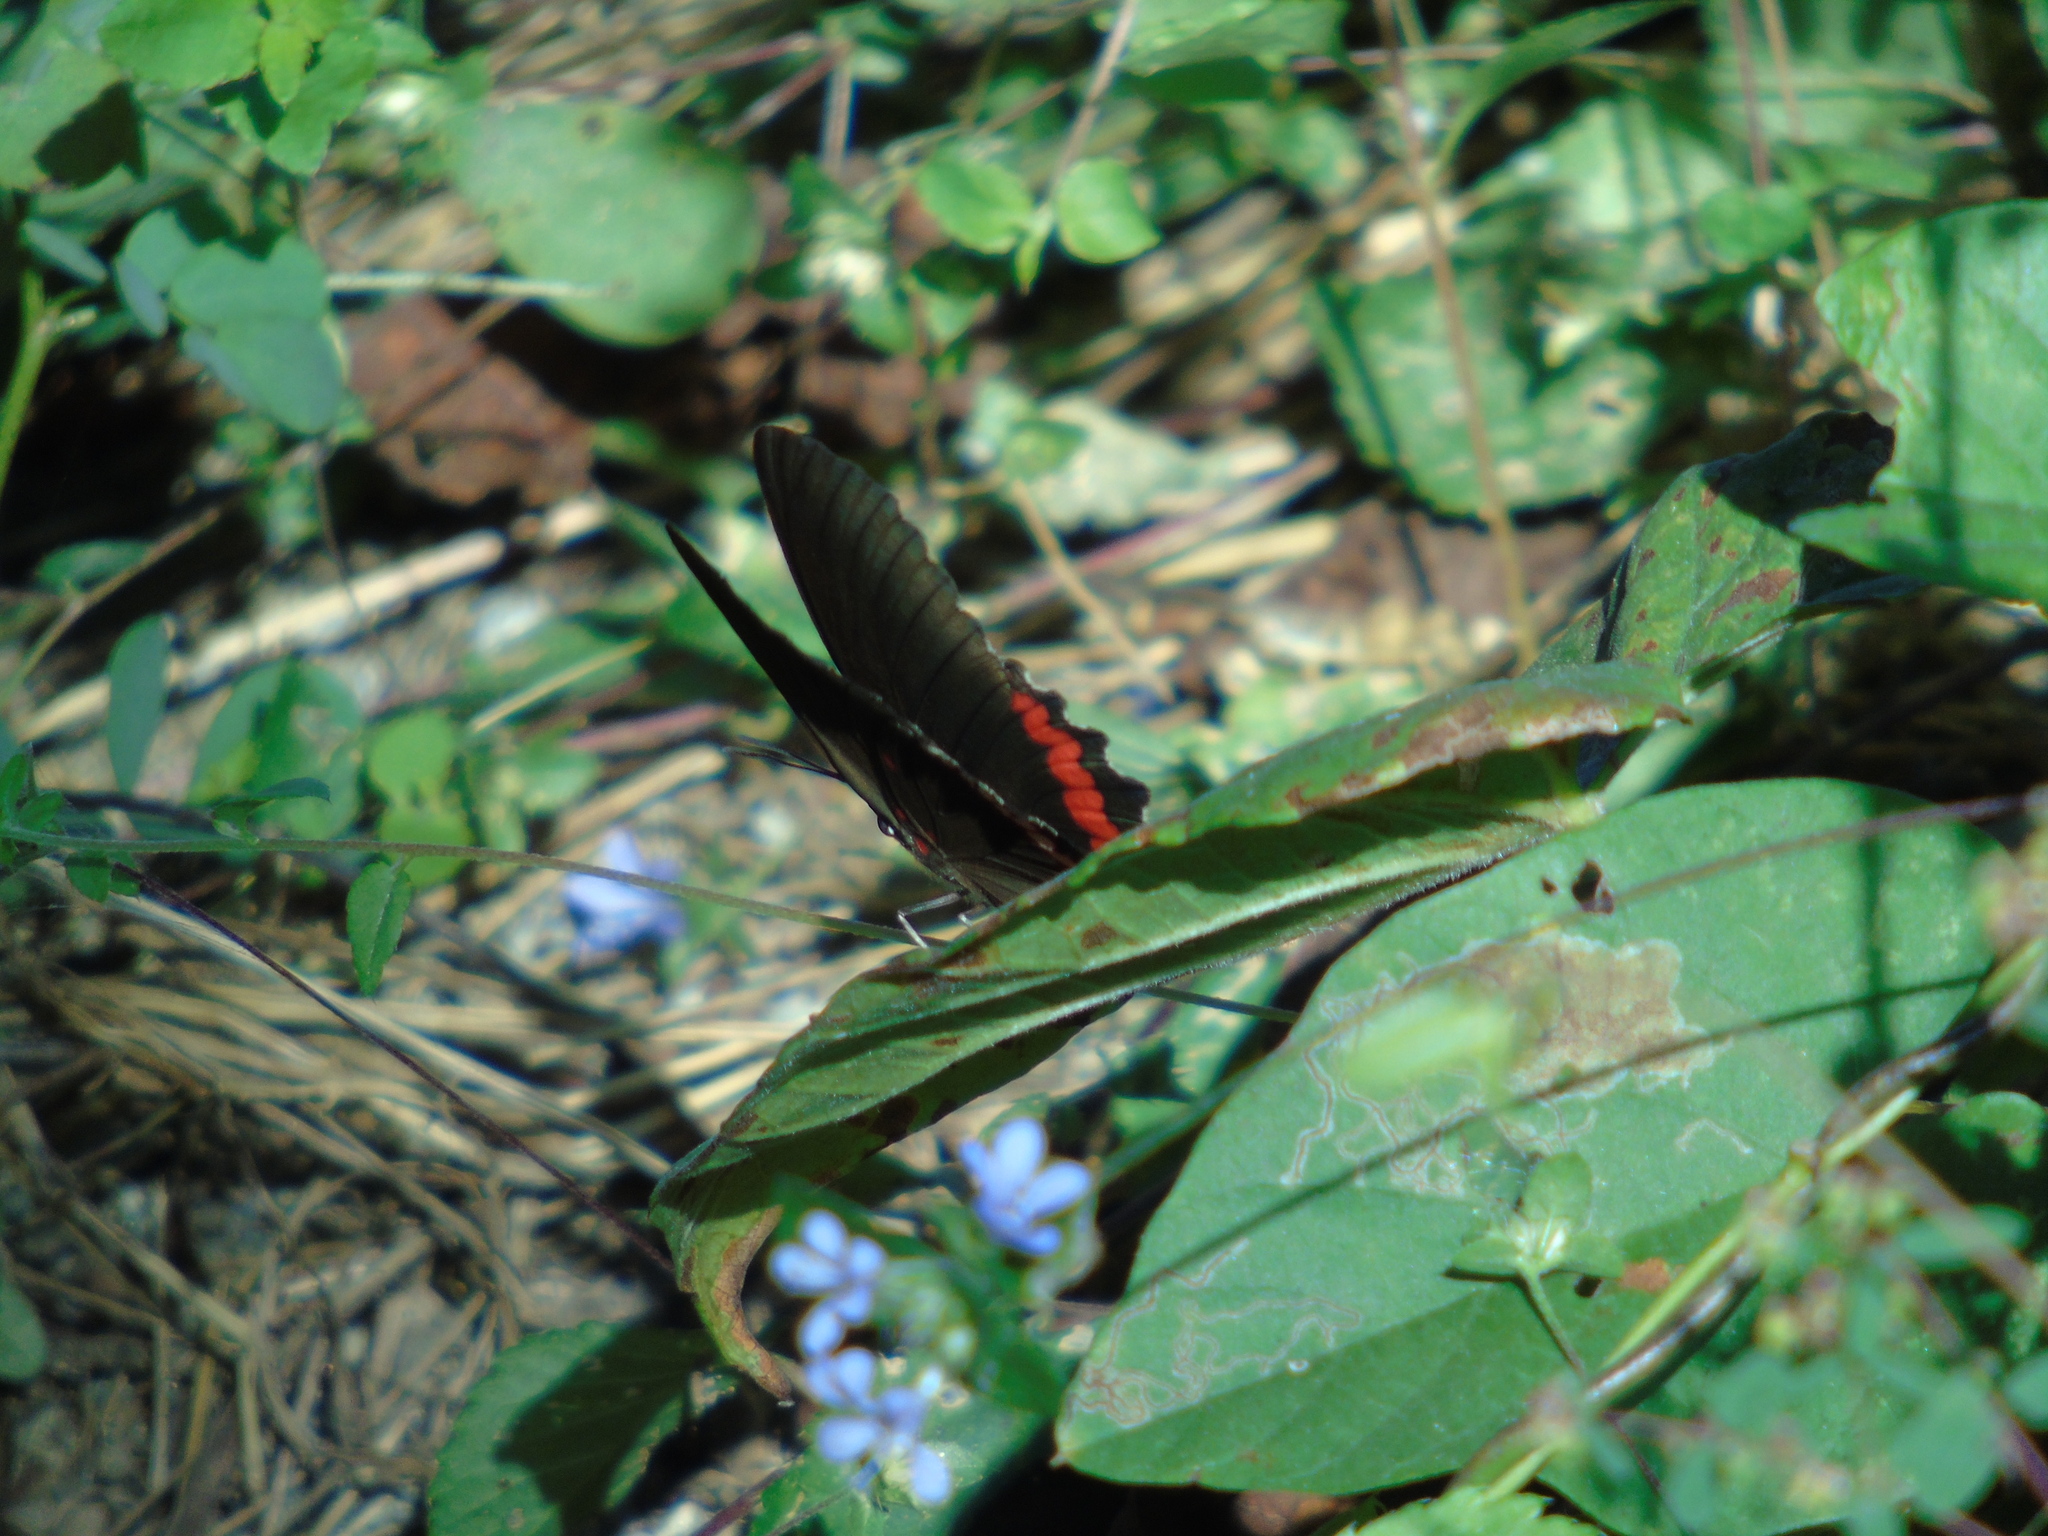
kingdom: Animalia
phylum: Arthropoda
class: Insecta
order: Lepidoptera
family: Nymphalidae
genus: Biblis
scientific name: Biblis aganisa
